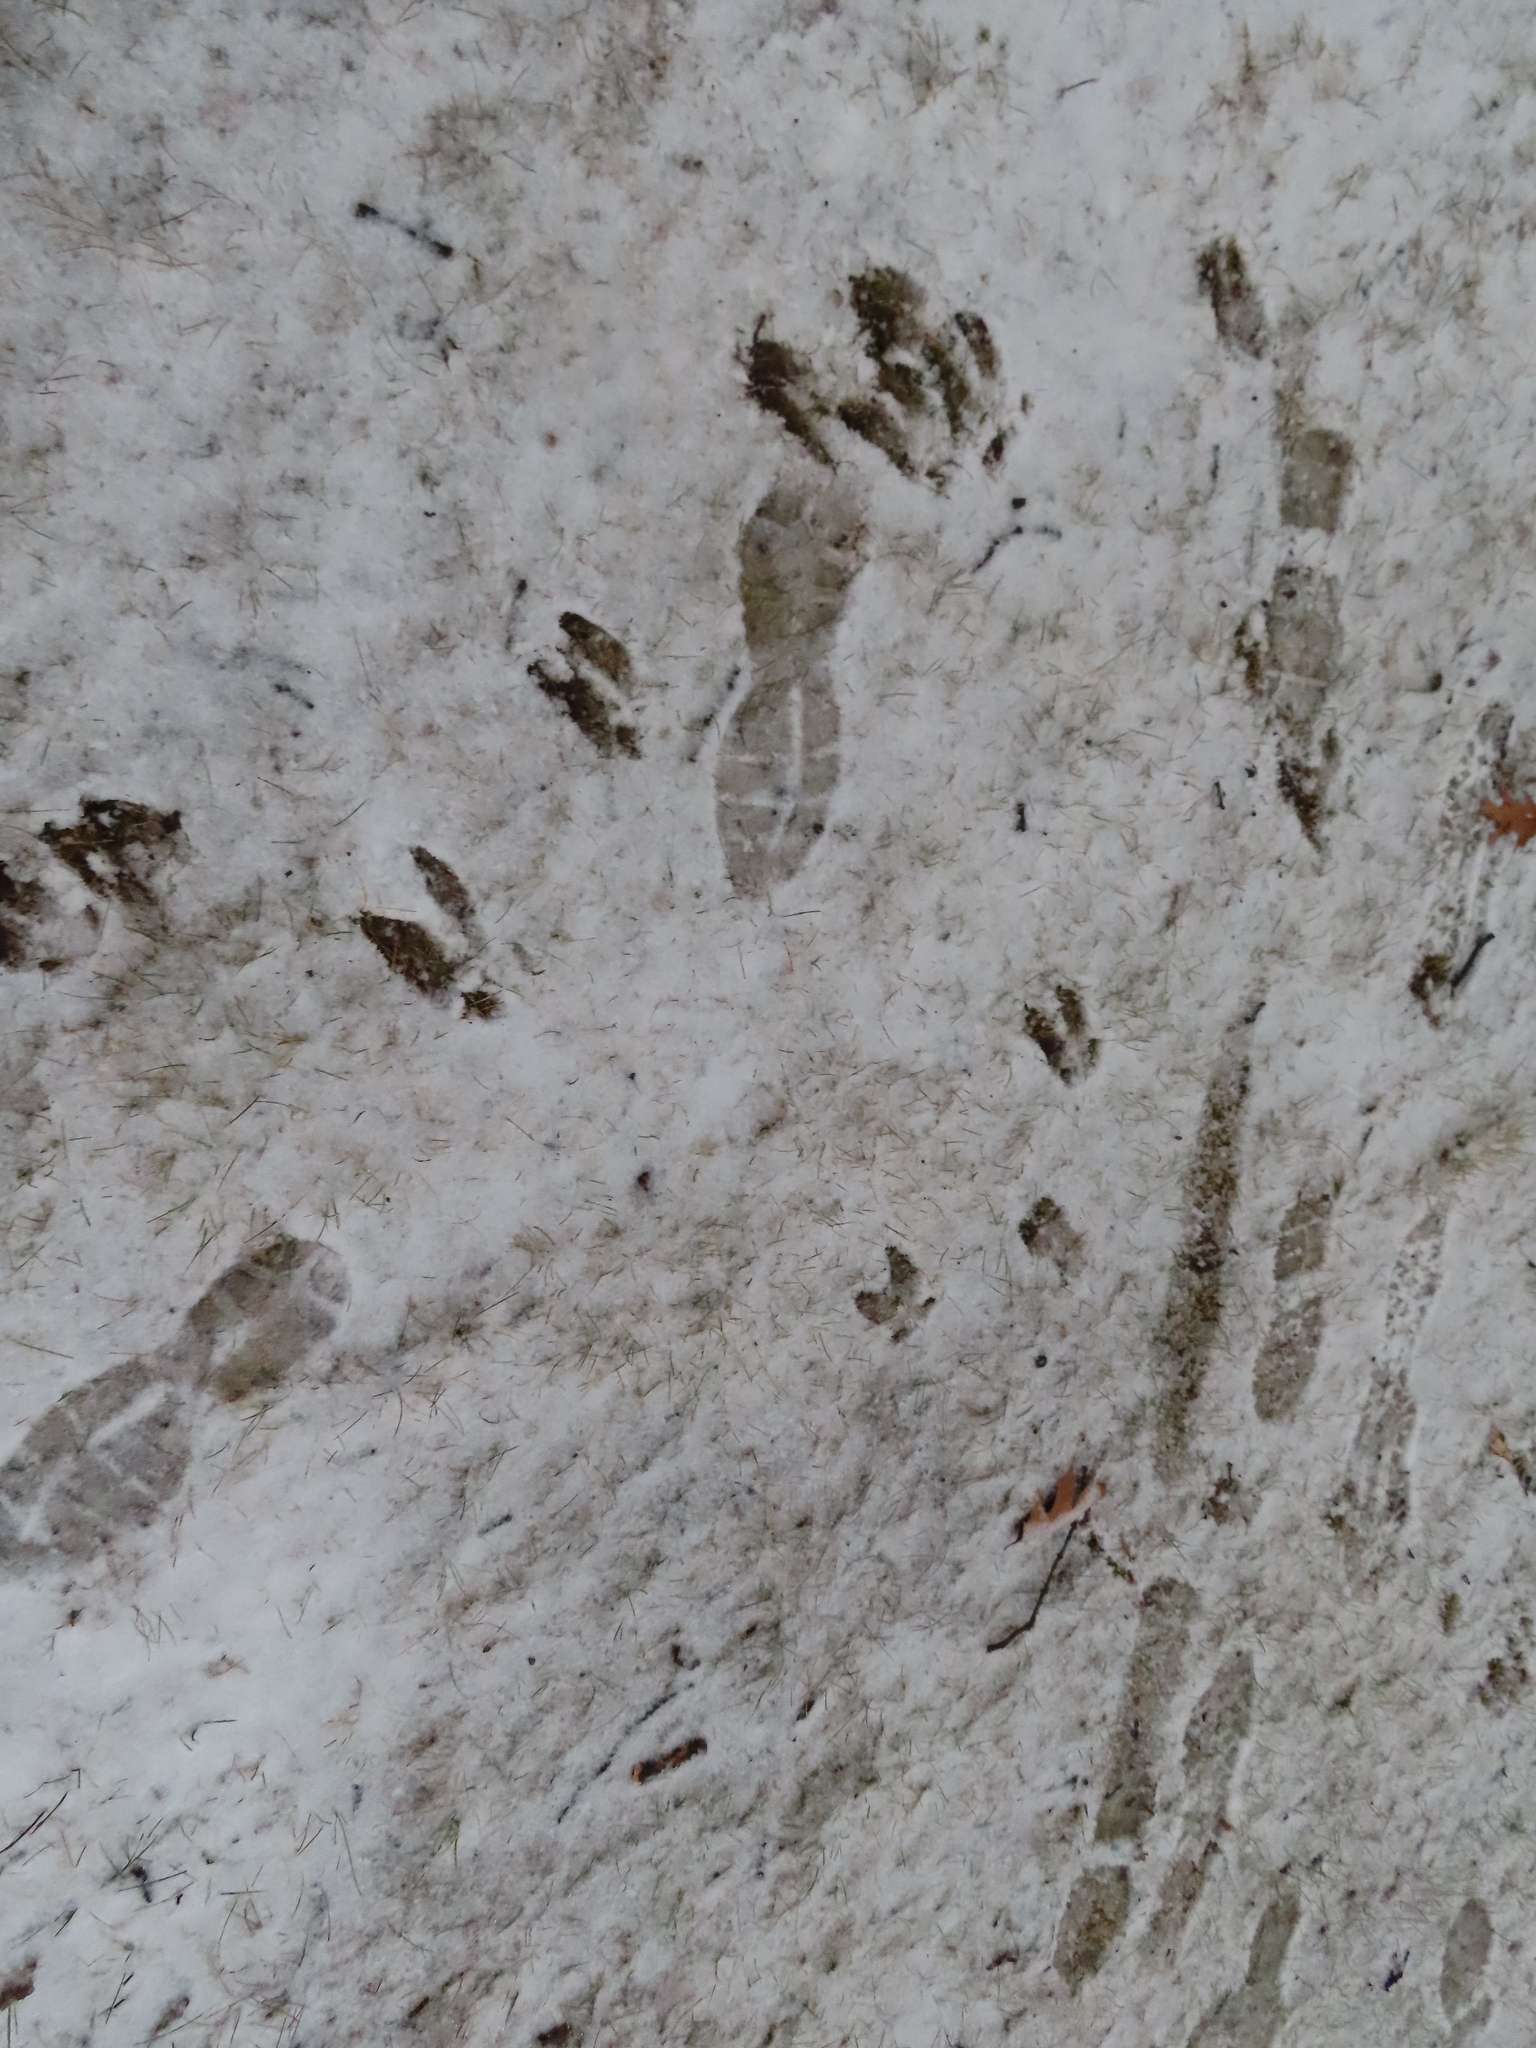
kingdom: Animalia
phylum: Chordata
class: Mammalia
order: Artiodactyla
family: Cervidae
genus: Odocoileus
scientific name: Odocoileus virginianus
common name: White-tailed deer
